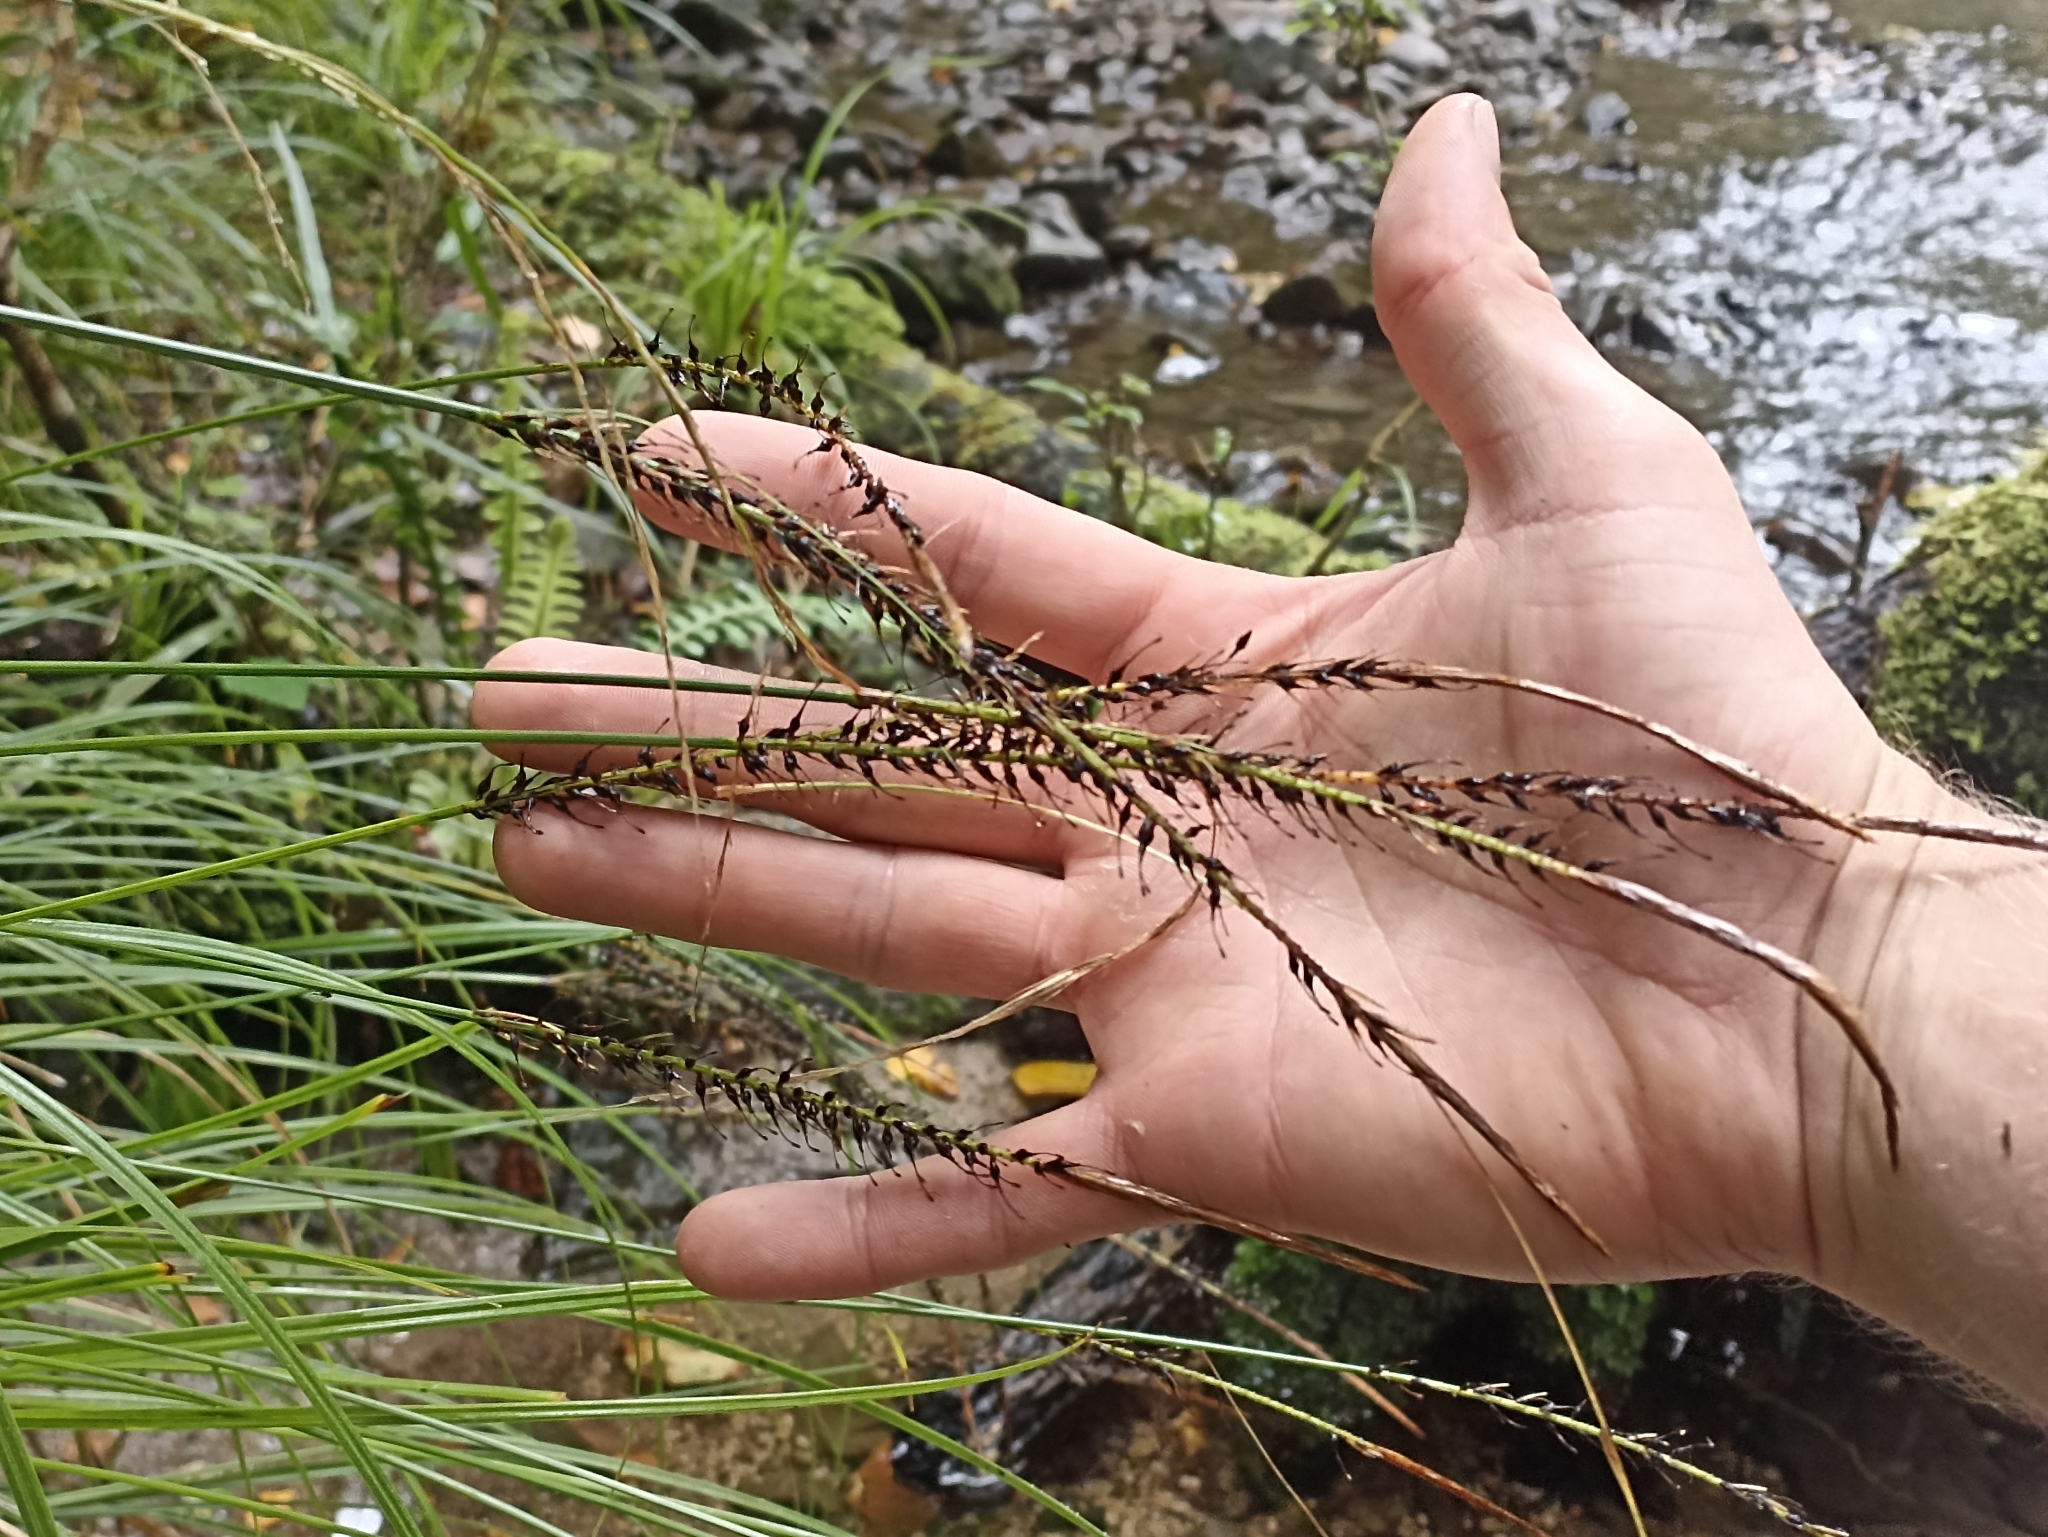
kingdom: Plantae
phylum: Tracheophyta
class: Liliopsida
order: Poales
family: Cyperaceae
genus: Carex
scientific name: Carex uncinata
